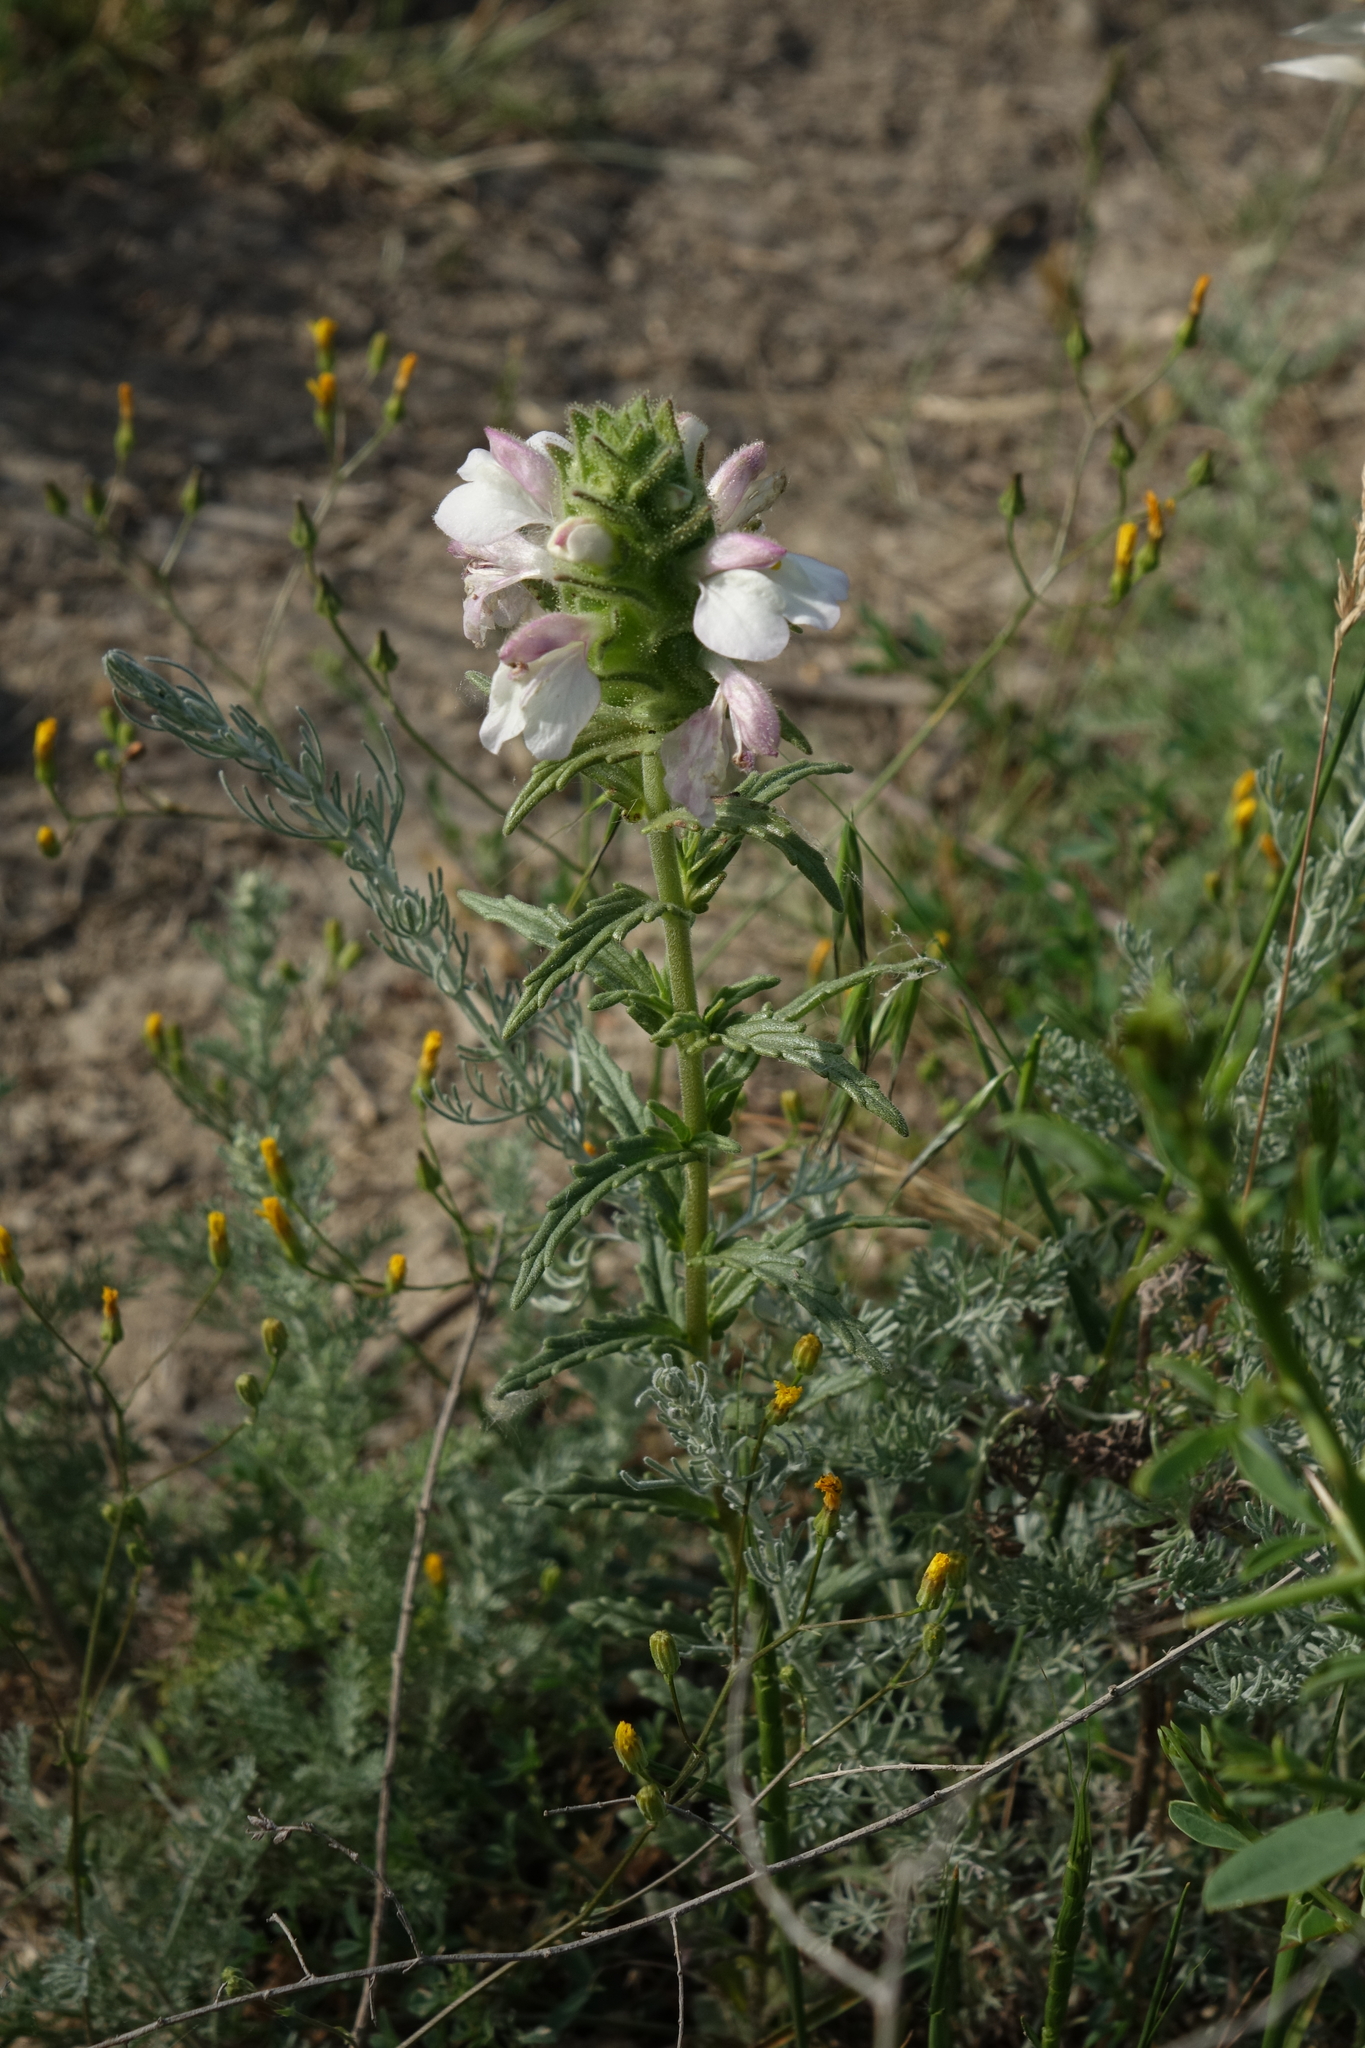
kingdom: Plantae
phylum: Tracheophyta
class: Magnoliopsida
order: Lamiales
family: Orobanchaceae
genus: Bellardia
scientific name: Bellardia trixago
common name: Mediterranean lineseed
